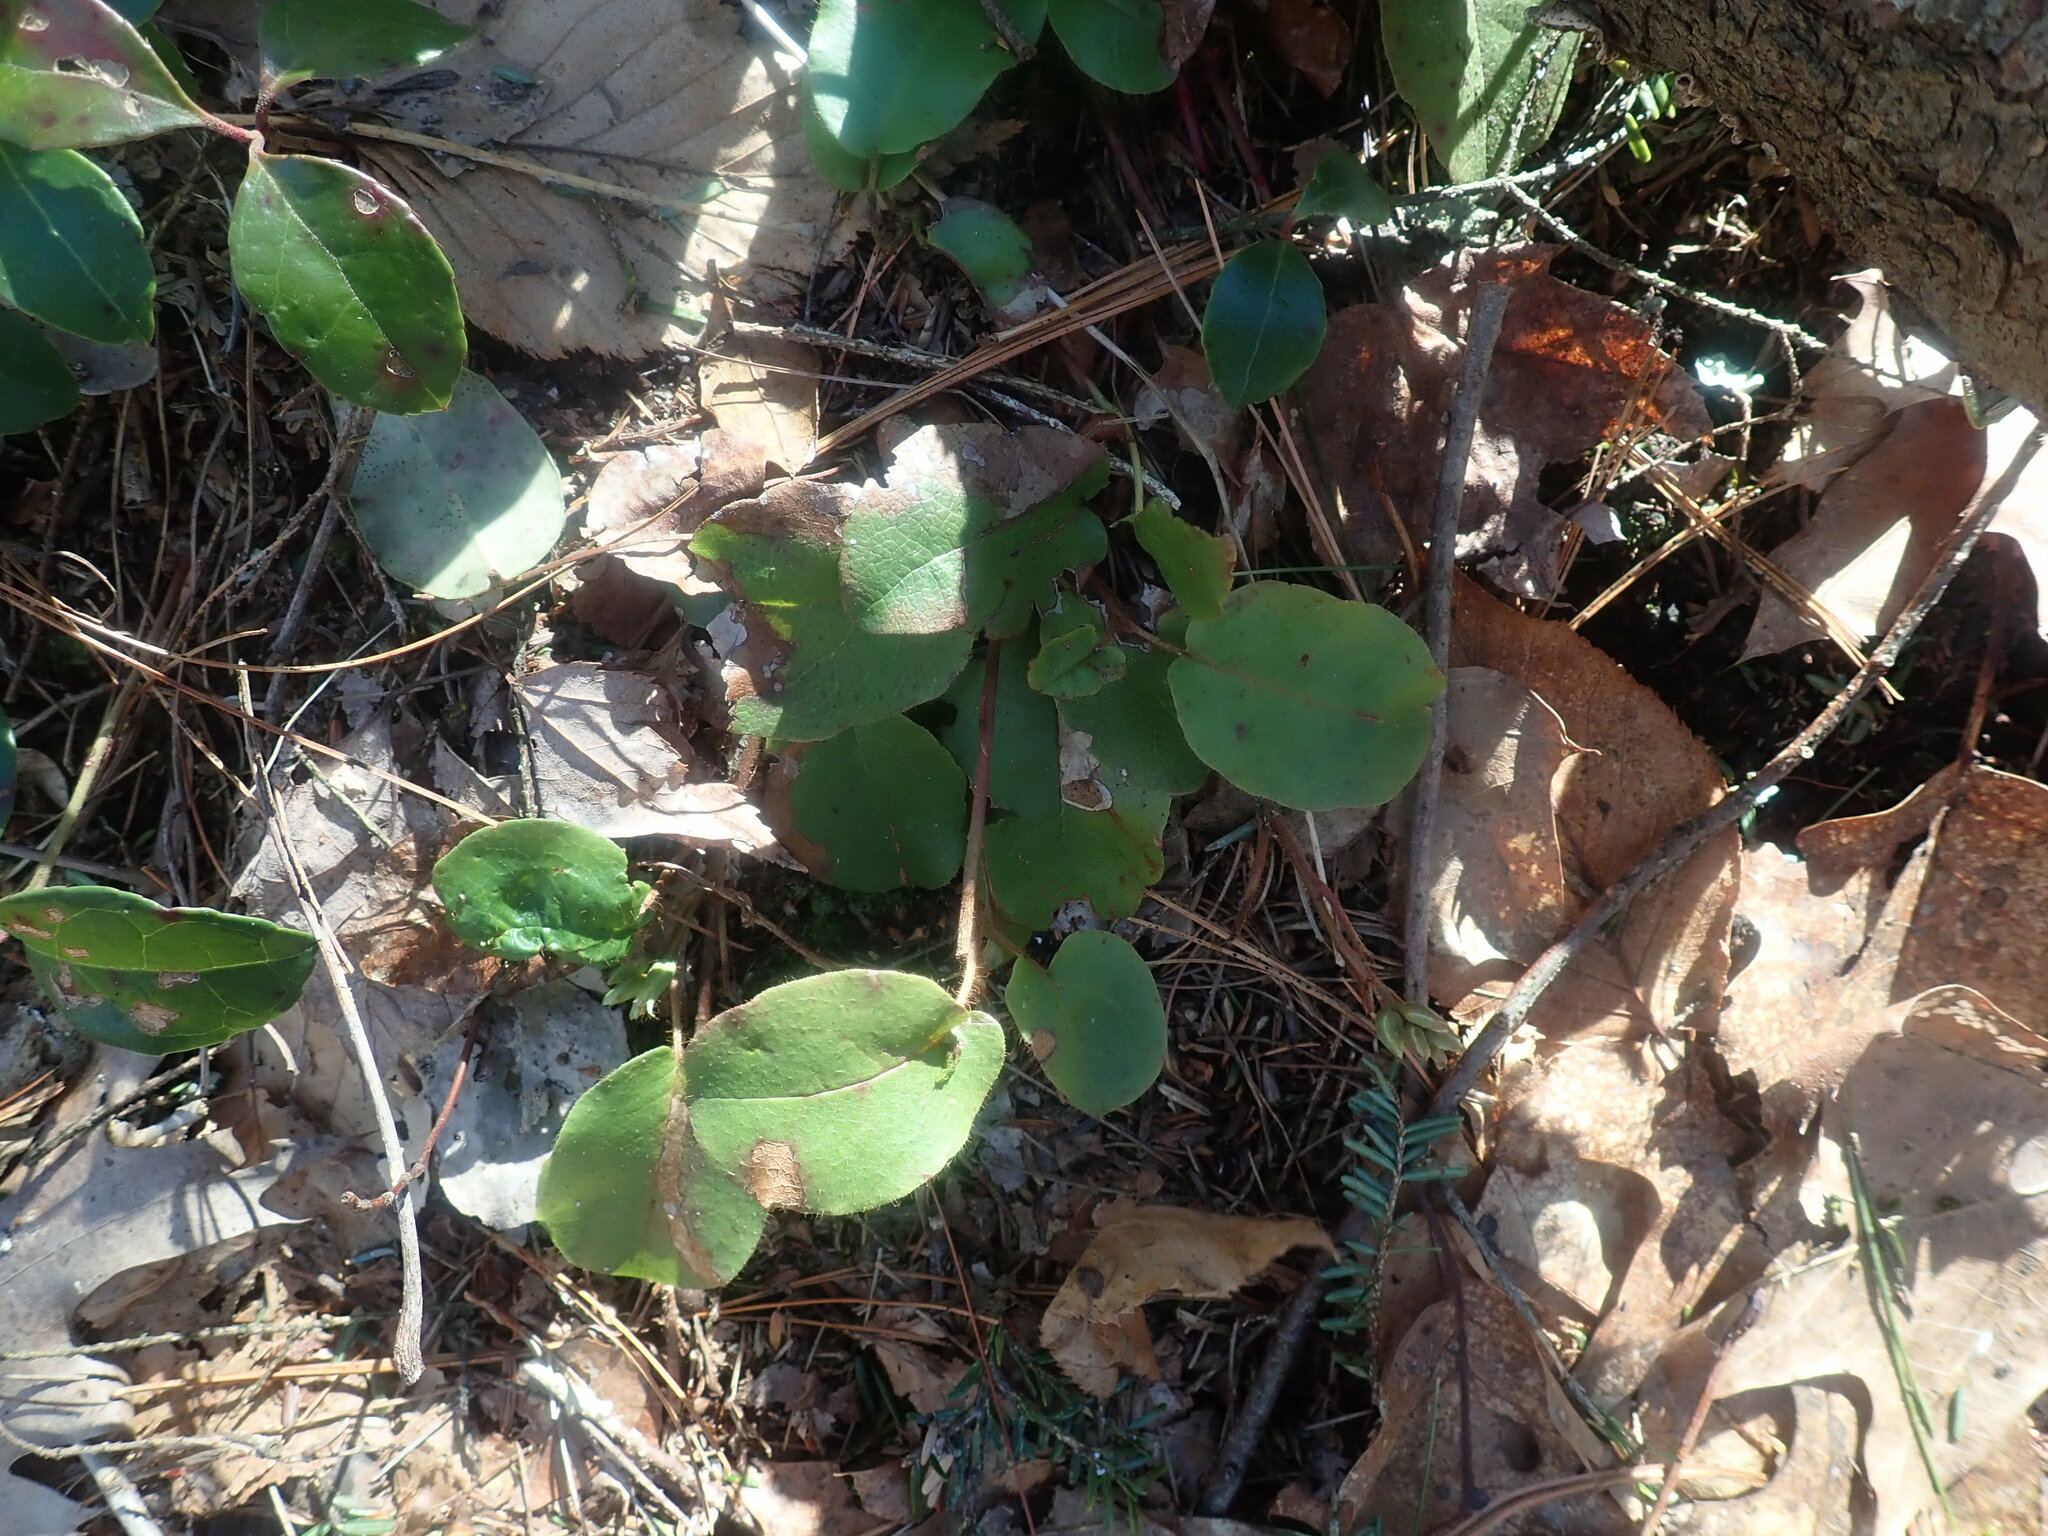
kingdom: Plantae
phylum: Tracheophyta
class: Magnoliopsida
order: Ericales
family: Ericaceae
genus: Epigaea
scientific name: Epigaea repens
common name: Gravelroot
